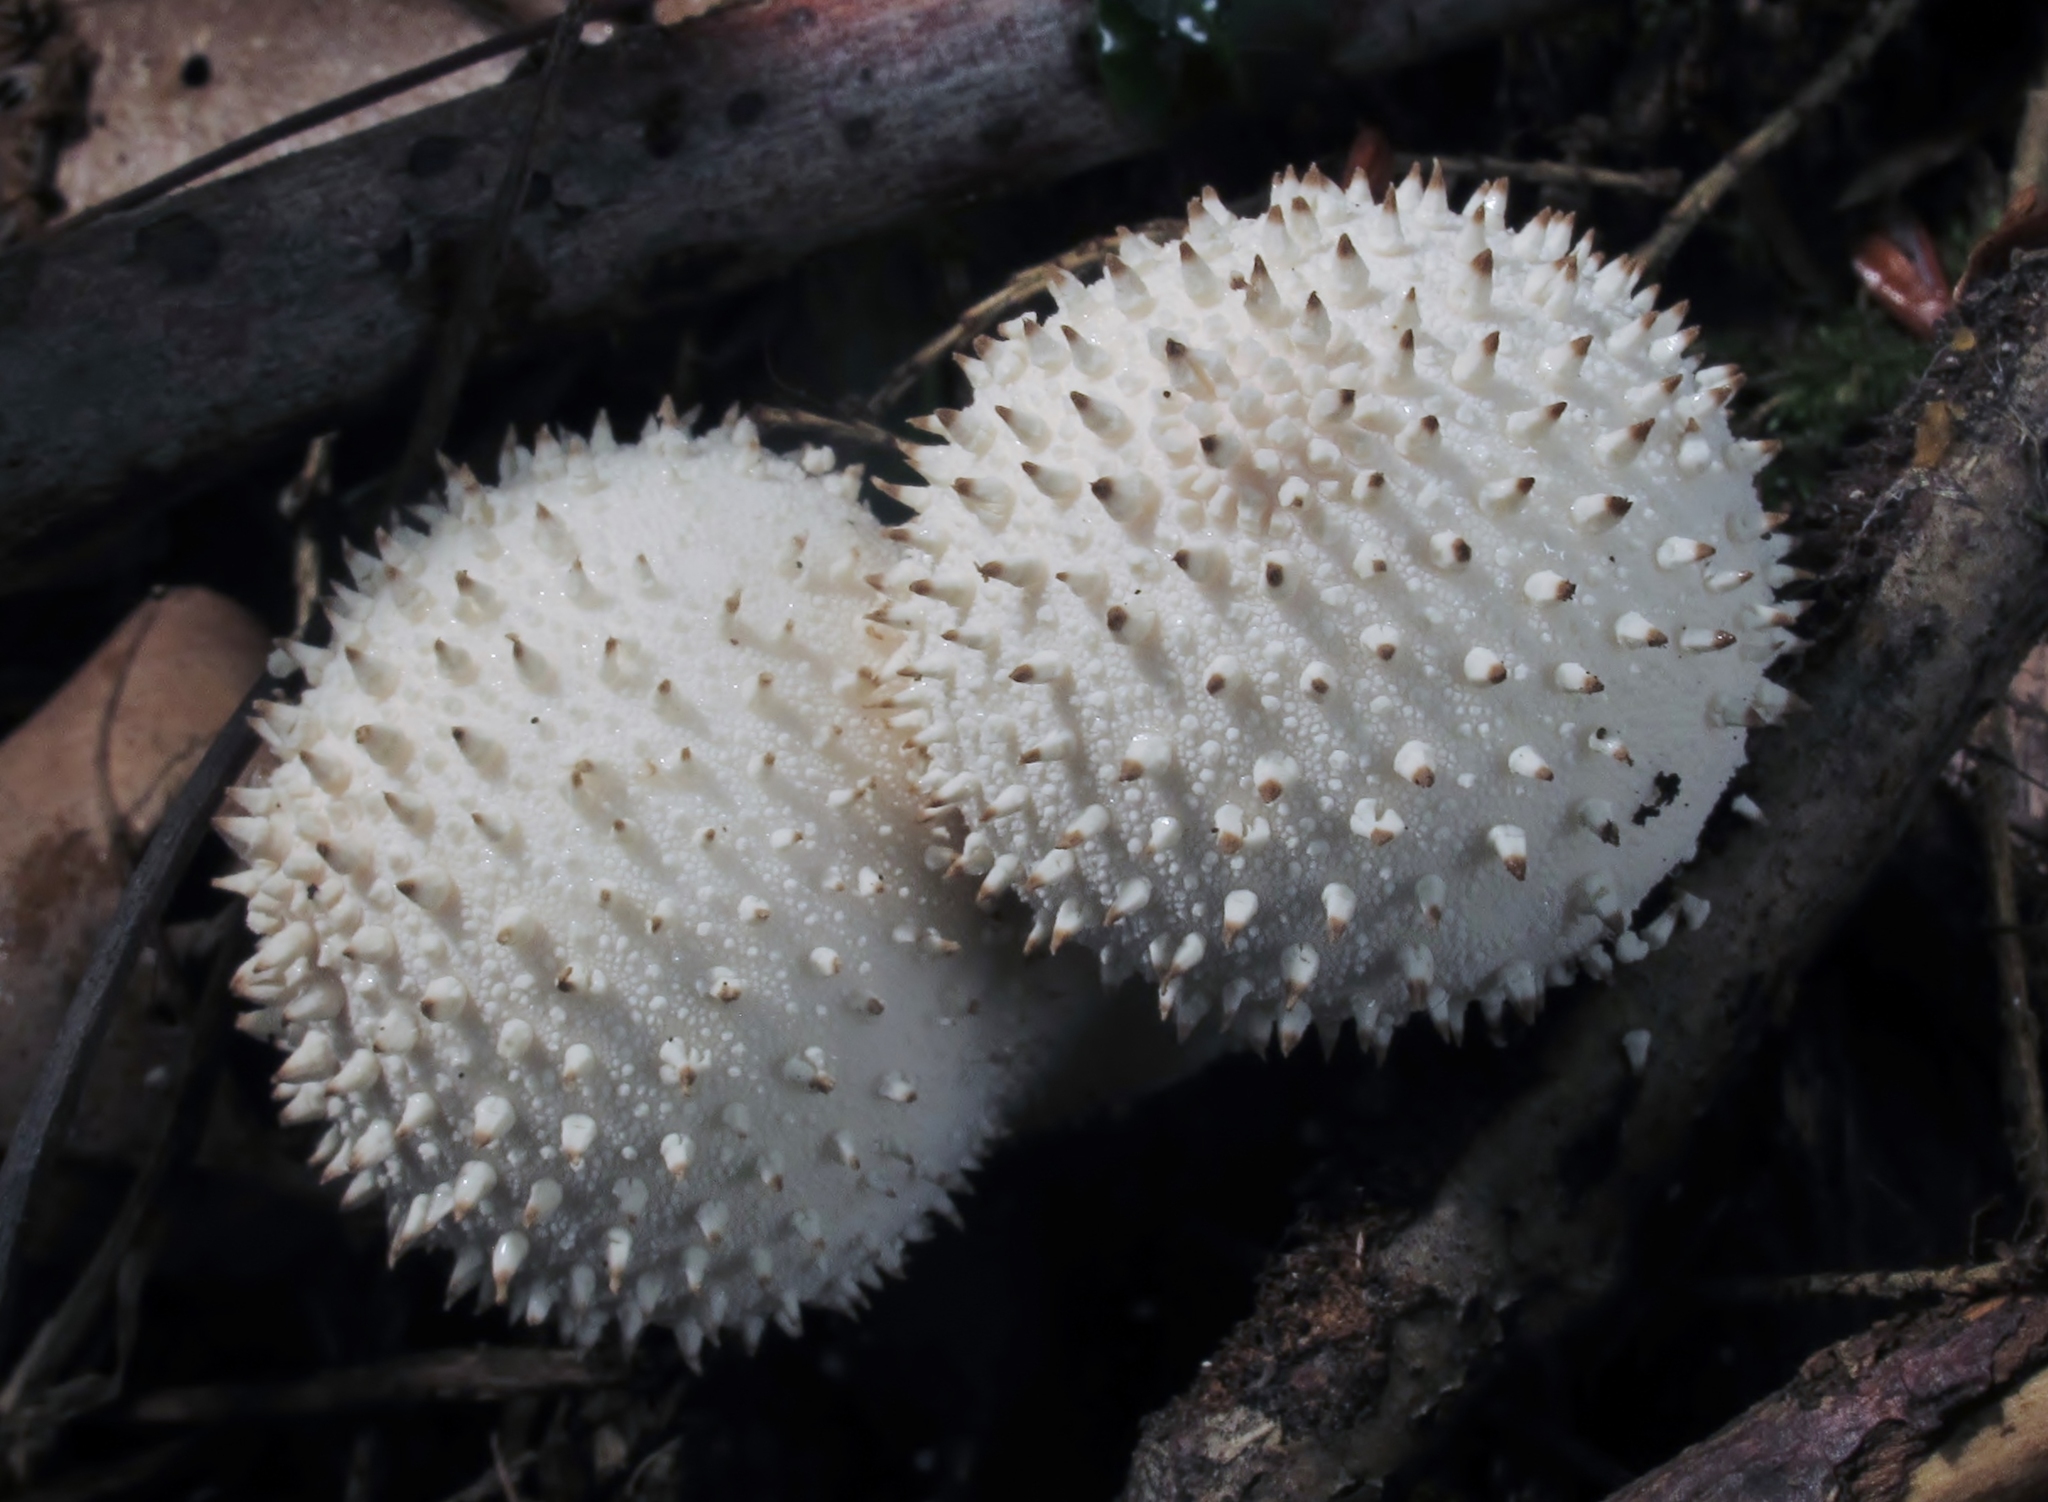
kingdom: Fungi
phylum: Basidiomycota
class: Agaricomycetes
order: Agaricales
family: Lycoperdaceae
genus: Lycoperdon
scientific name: Lycoperdon perlatum
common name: Common puffball
